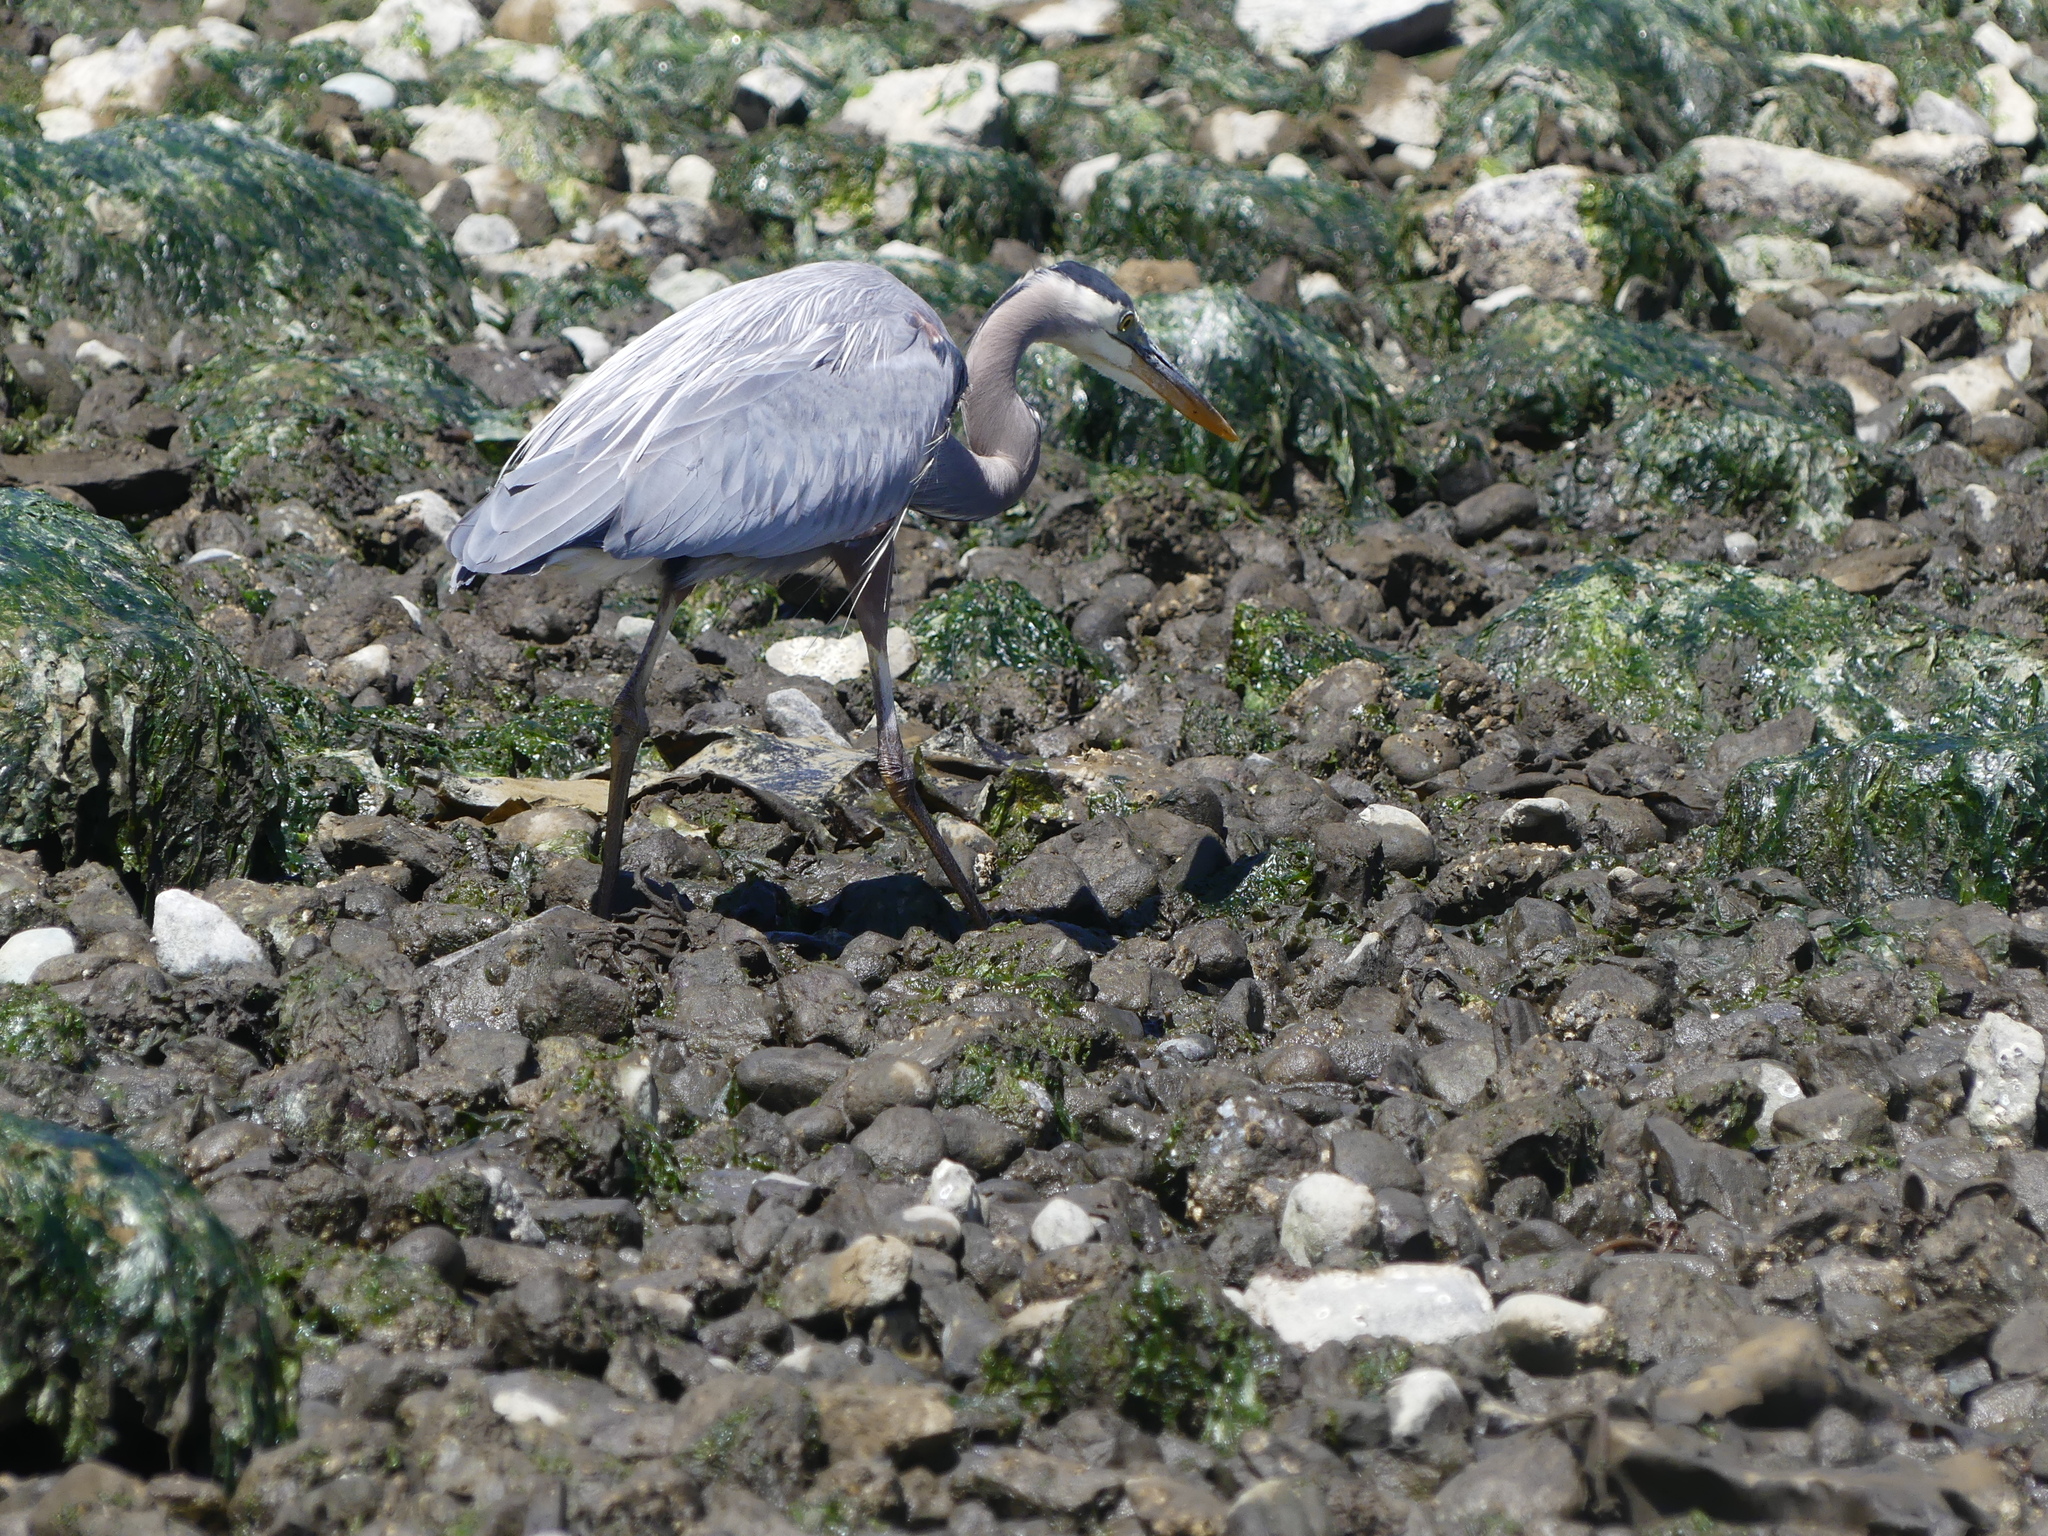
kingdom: Animalia
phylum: Chordata
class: Aves
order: Pelecaniformes
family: Ardeidae
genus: Ardea
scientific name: Ardea herodias
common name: Great blue heron
